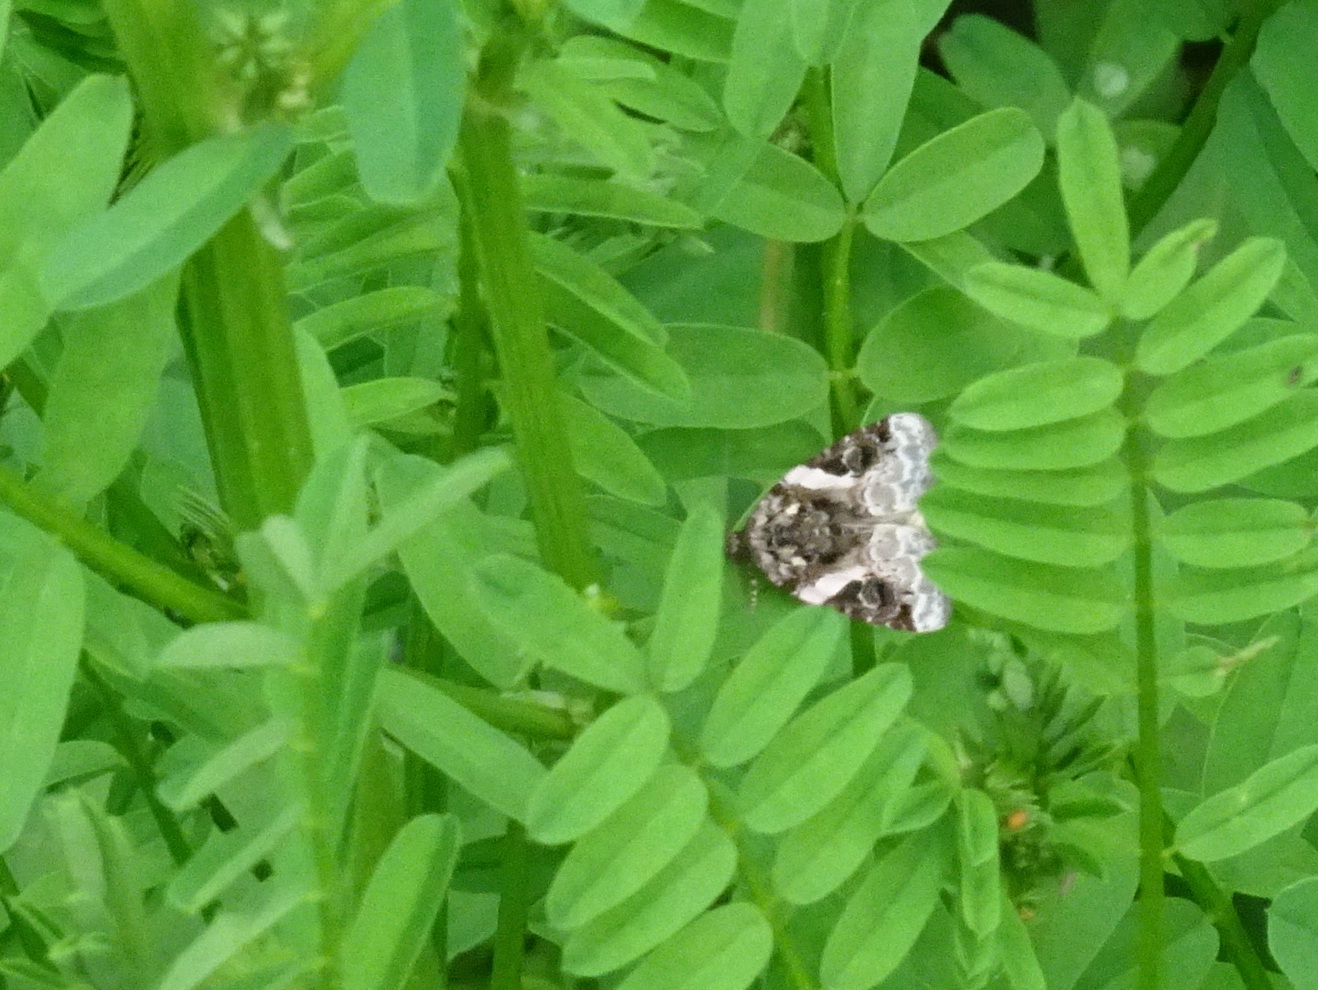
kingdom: Animalia
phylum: Arthropoda
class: Insecta
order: Lepidoptera
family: Noctuidae
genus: Pseudeustrotia
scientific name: Pseudeustrotia carneola
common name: Pink-barred lithacodia moth
